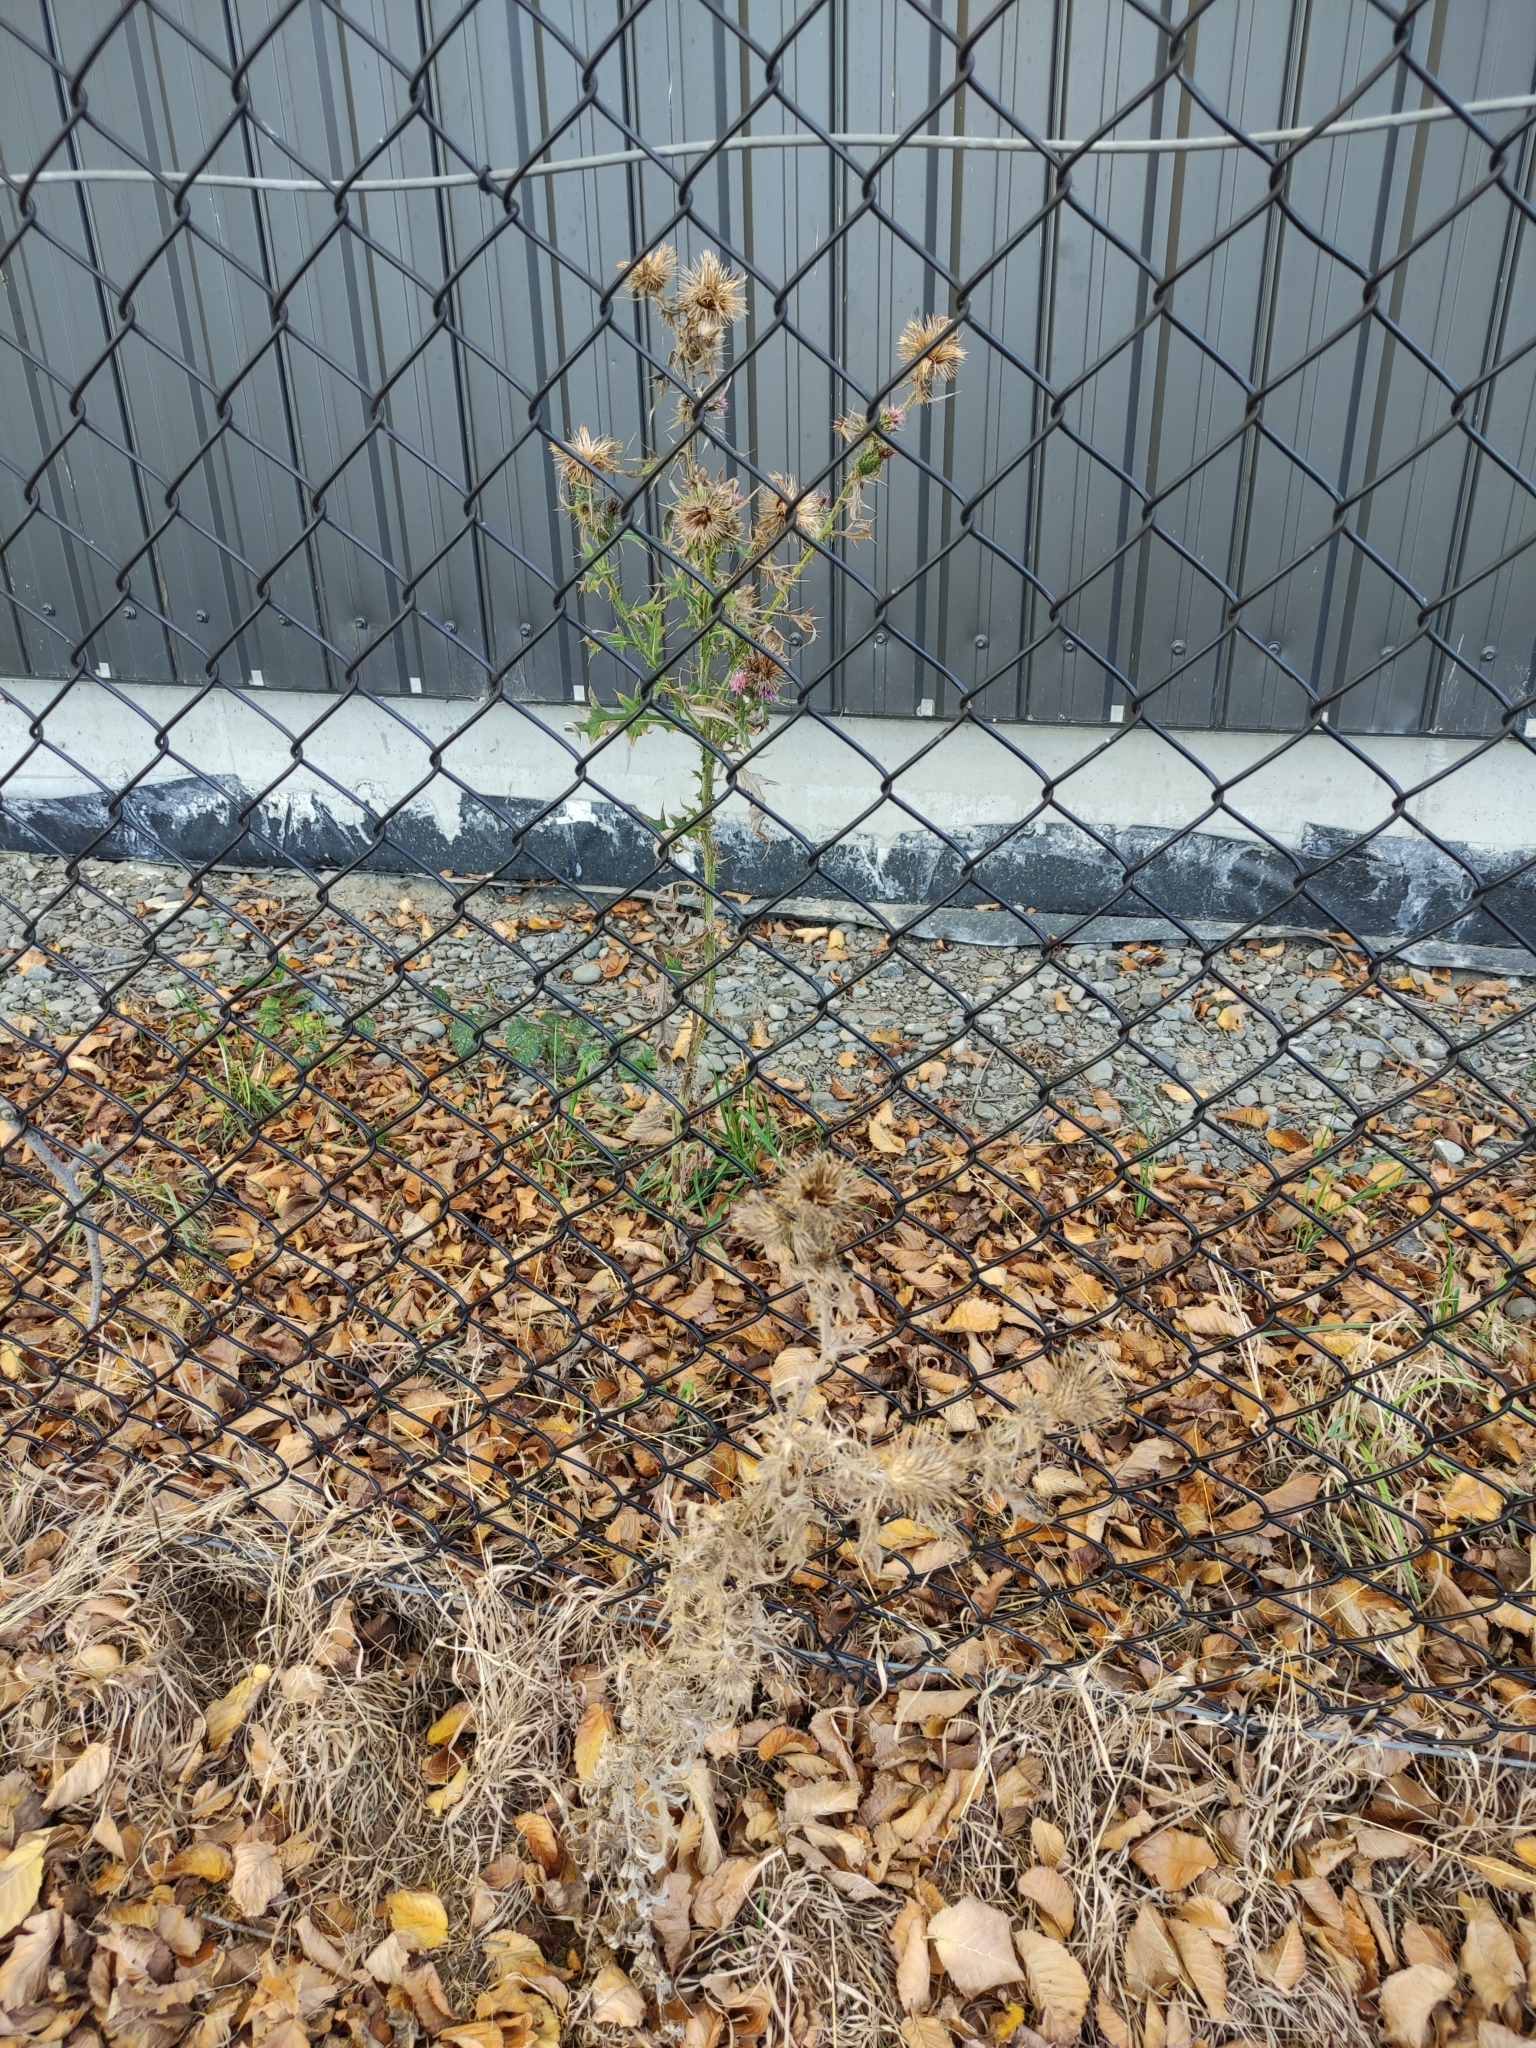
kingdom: Plantae
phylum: Tracheophyta
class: Magnoliopsida
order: Asterales
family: Asteraceae
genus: Cirsium
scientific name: Cirsium vulgare
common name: Bull thistle
